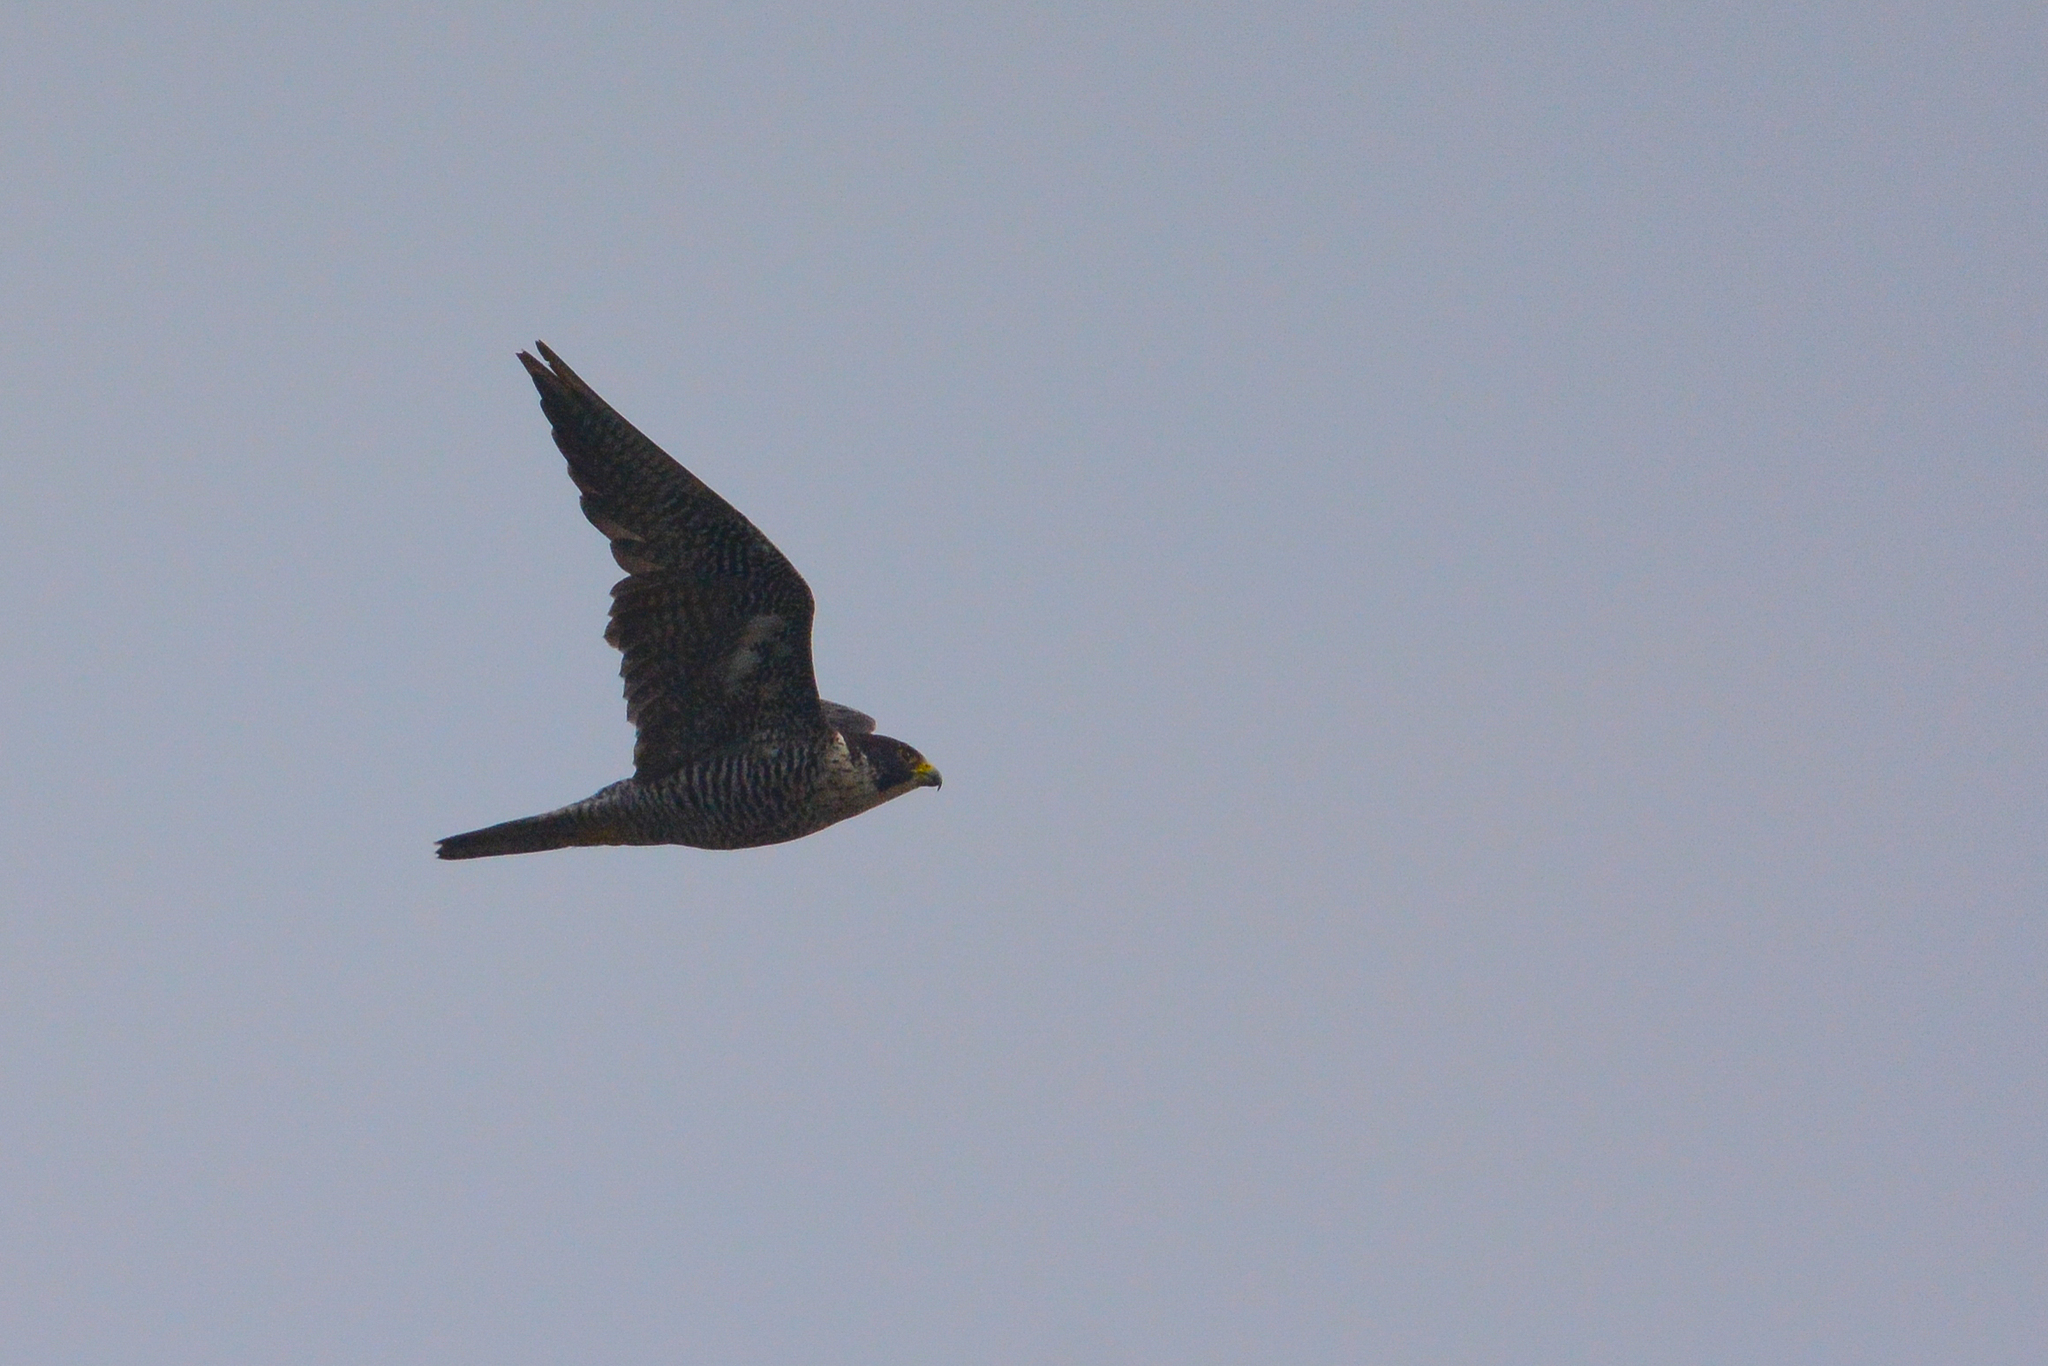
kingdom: Animalia
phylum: Chordata
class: Aves
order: Falconiformes
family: Falconidae
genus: Falco
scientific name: Falco peregrinus
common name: Peregrine falcon
